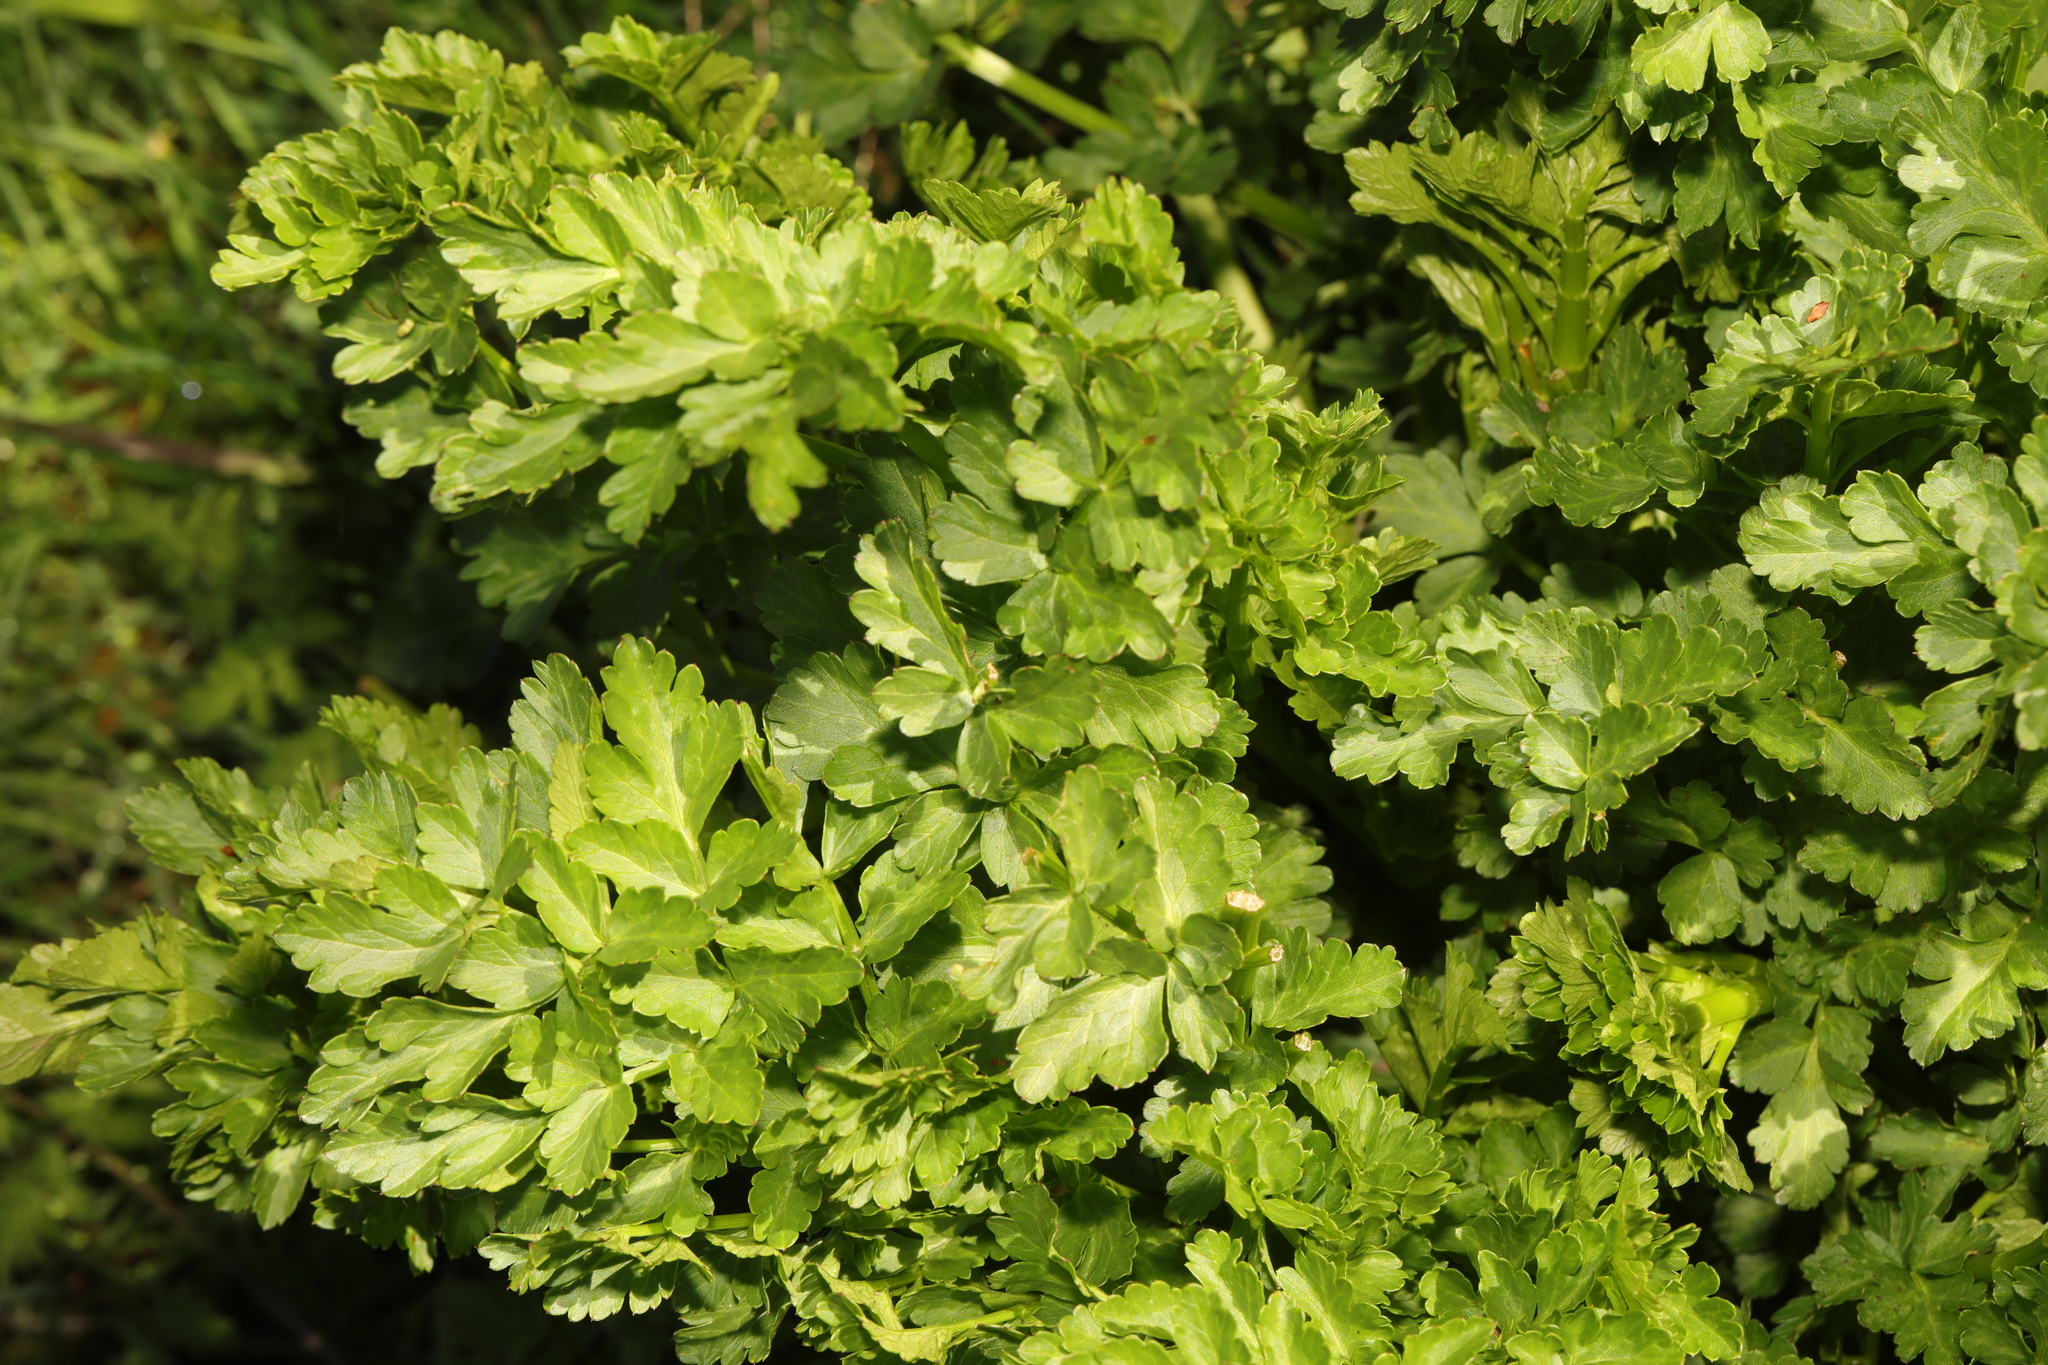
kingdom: Plantae
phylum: Tracheophyta
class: Magnoliopsida
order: Apiales
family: Apiaceae
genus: Oenanthe
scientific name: Oenanthe crocata
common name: Hemlock water-dropwort
